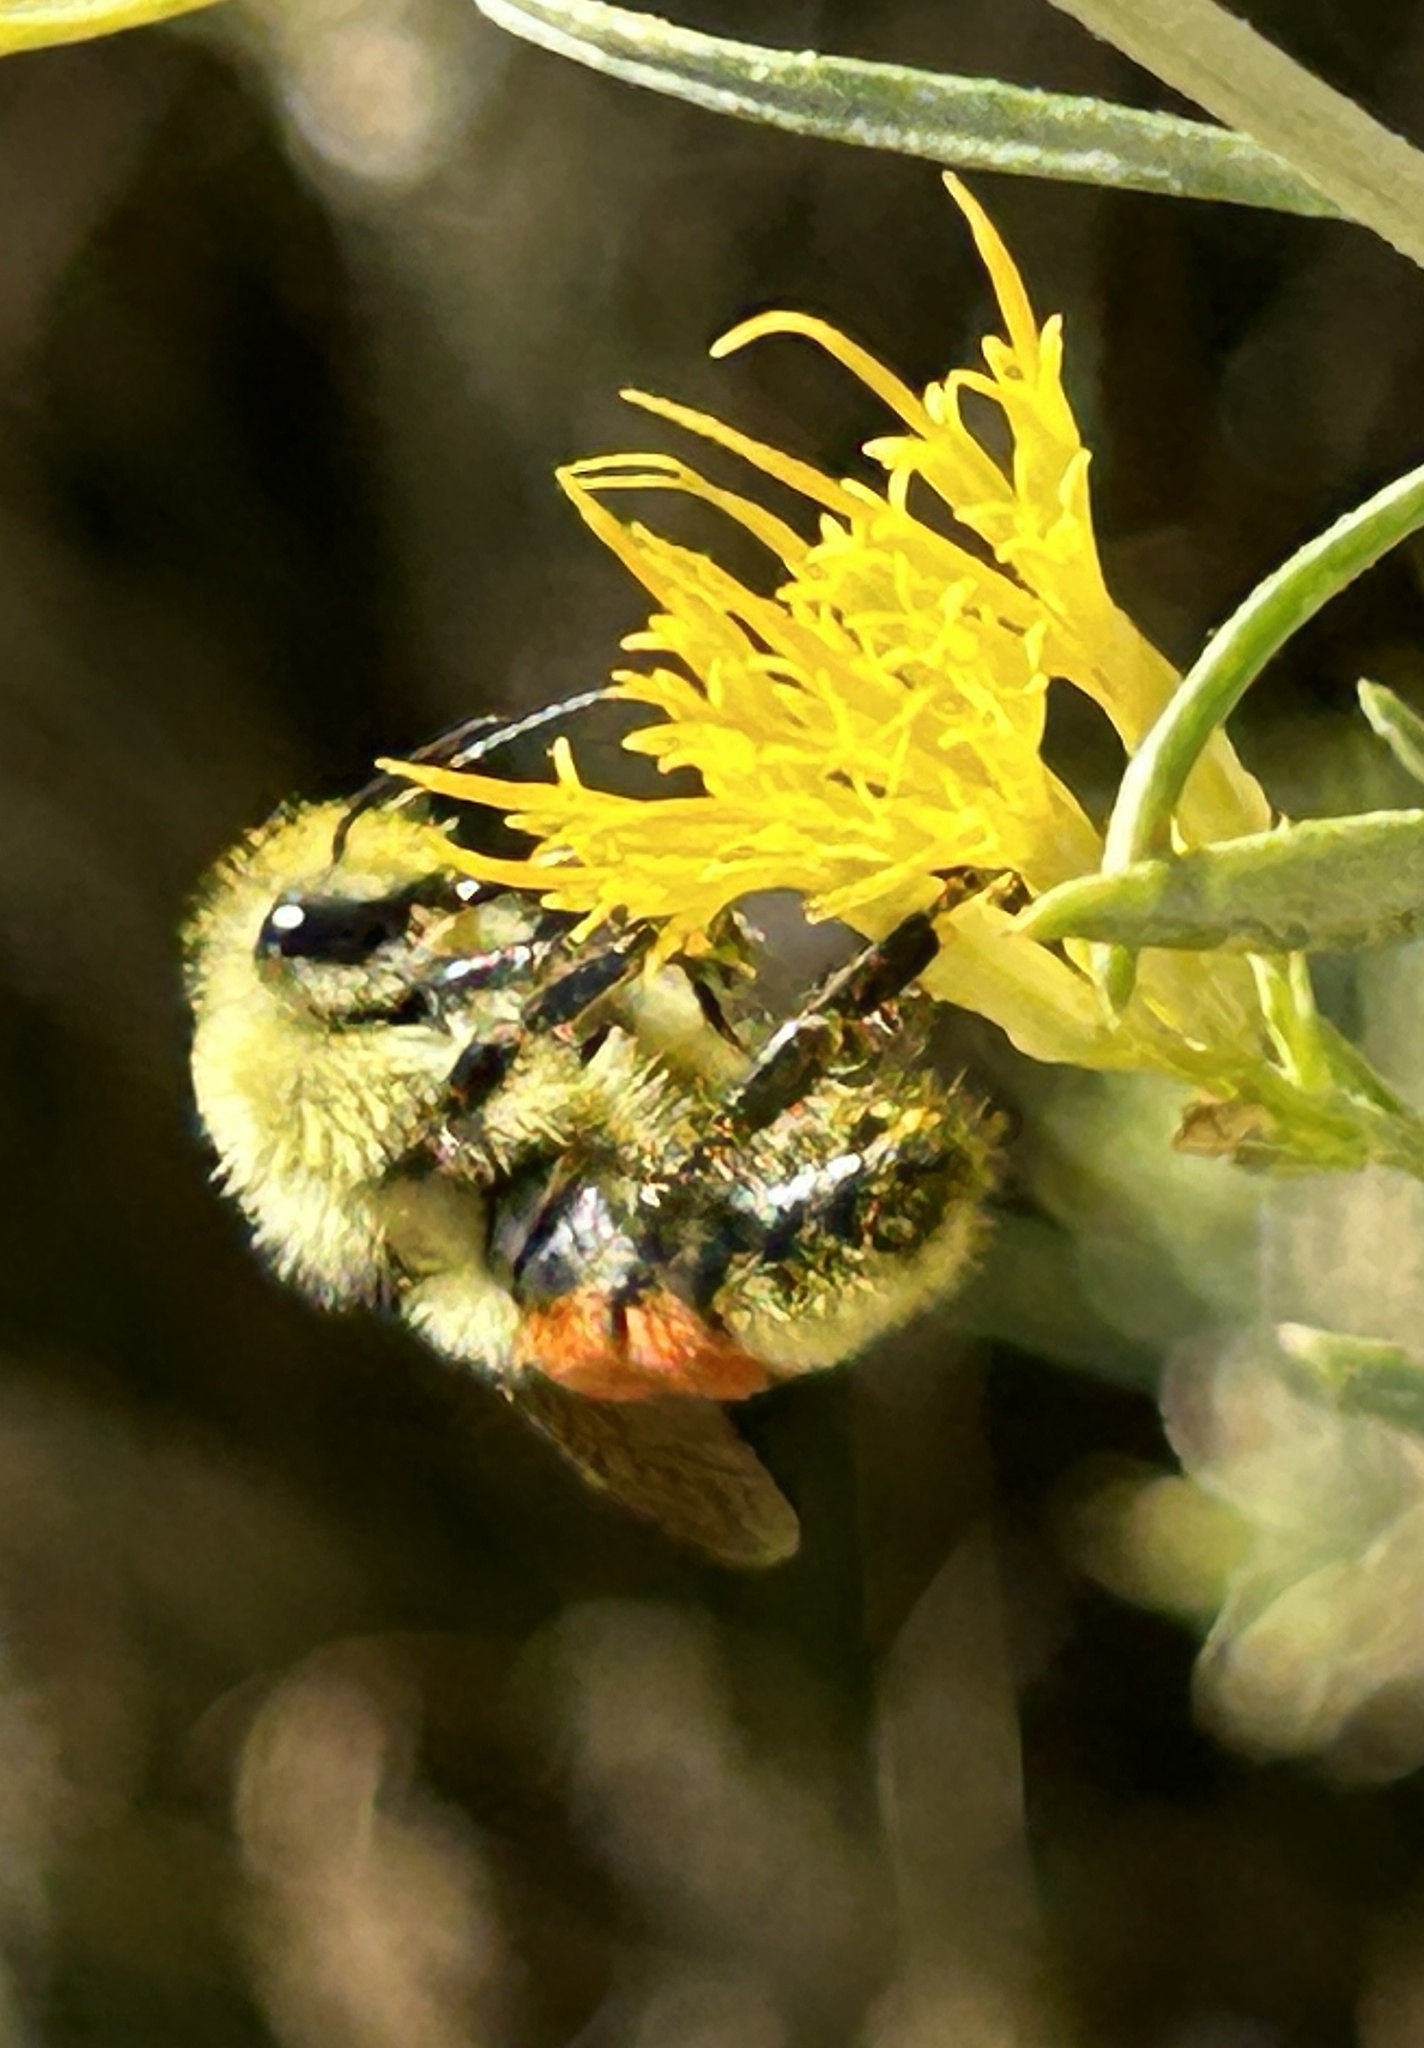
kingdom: Animalia
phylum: Arthropoda
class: Insecta
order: Hymenoptera
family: Apidae
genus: Bombus
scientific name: Bombus huntii
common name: Hunt bumble bee
